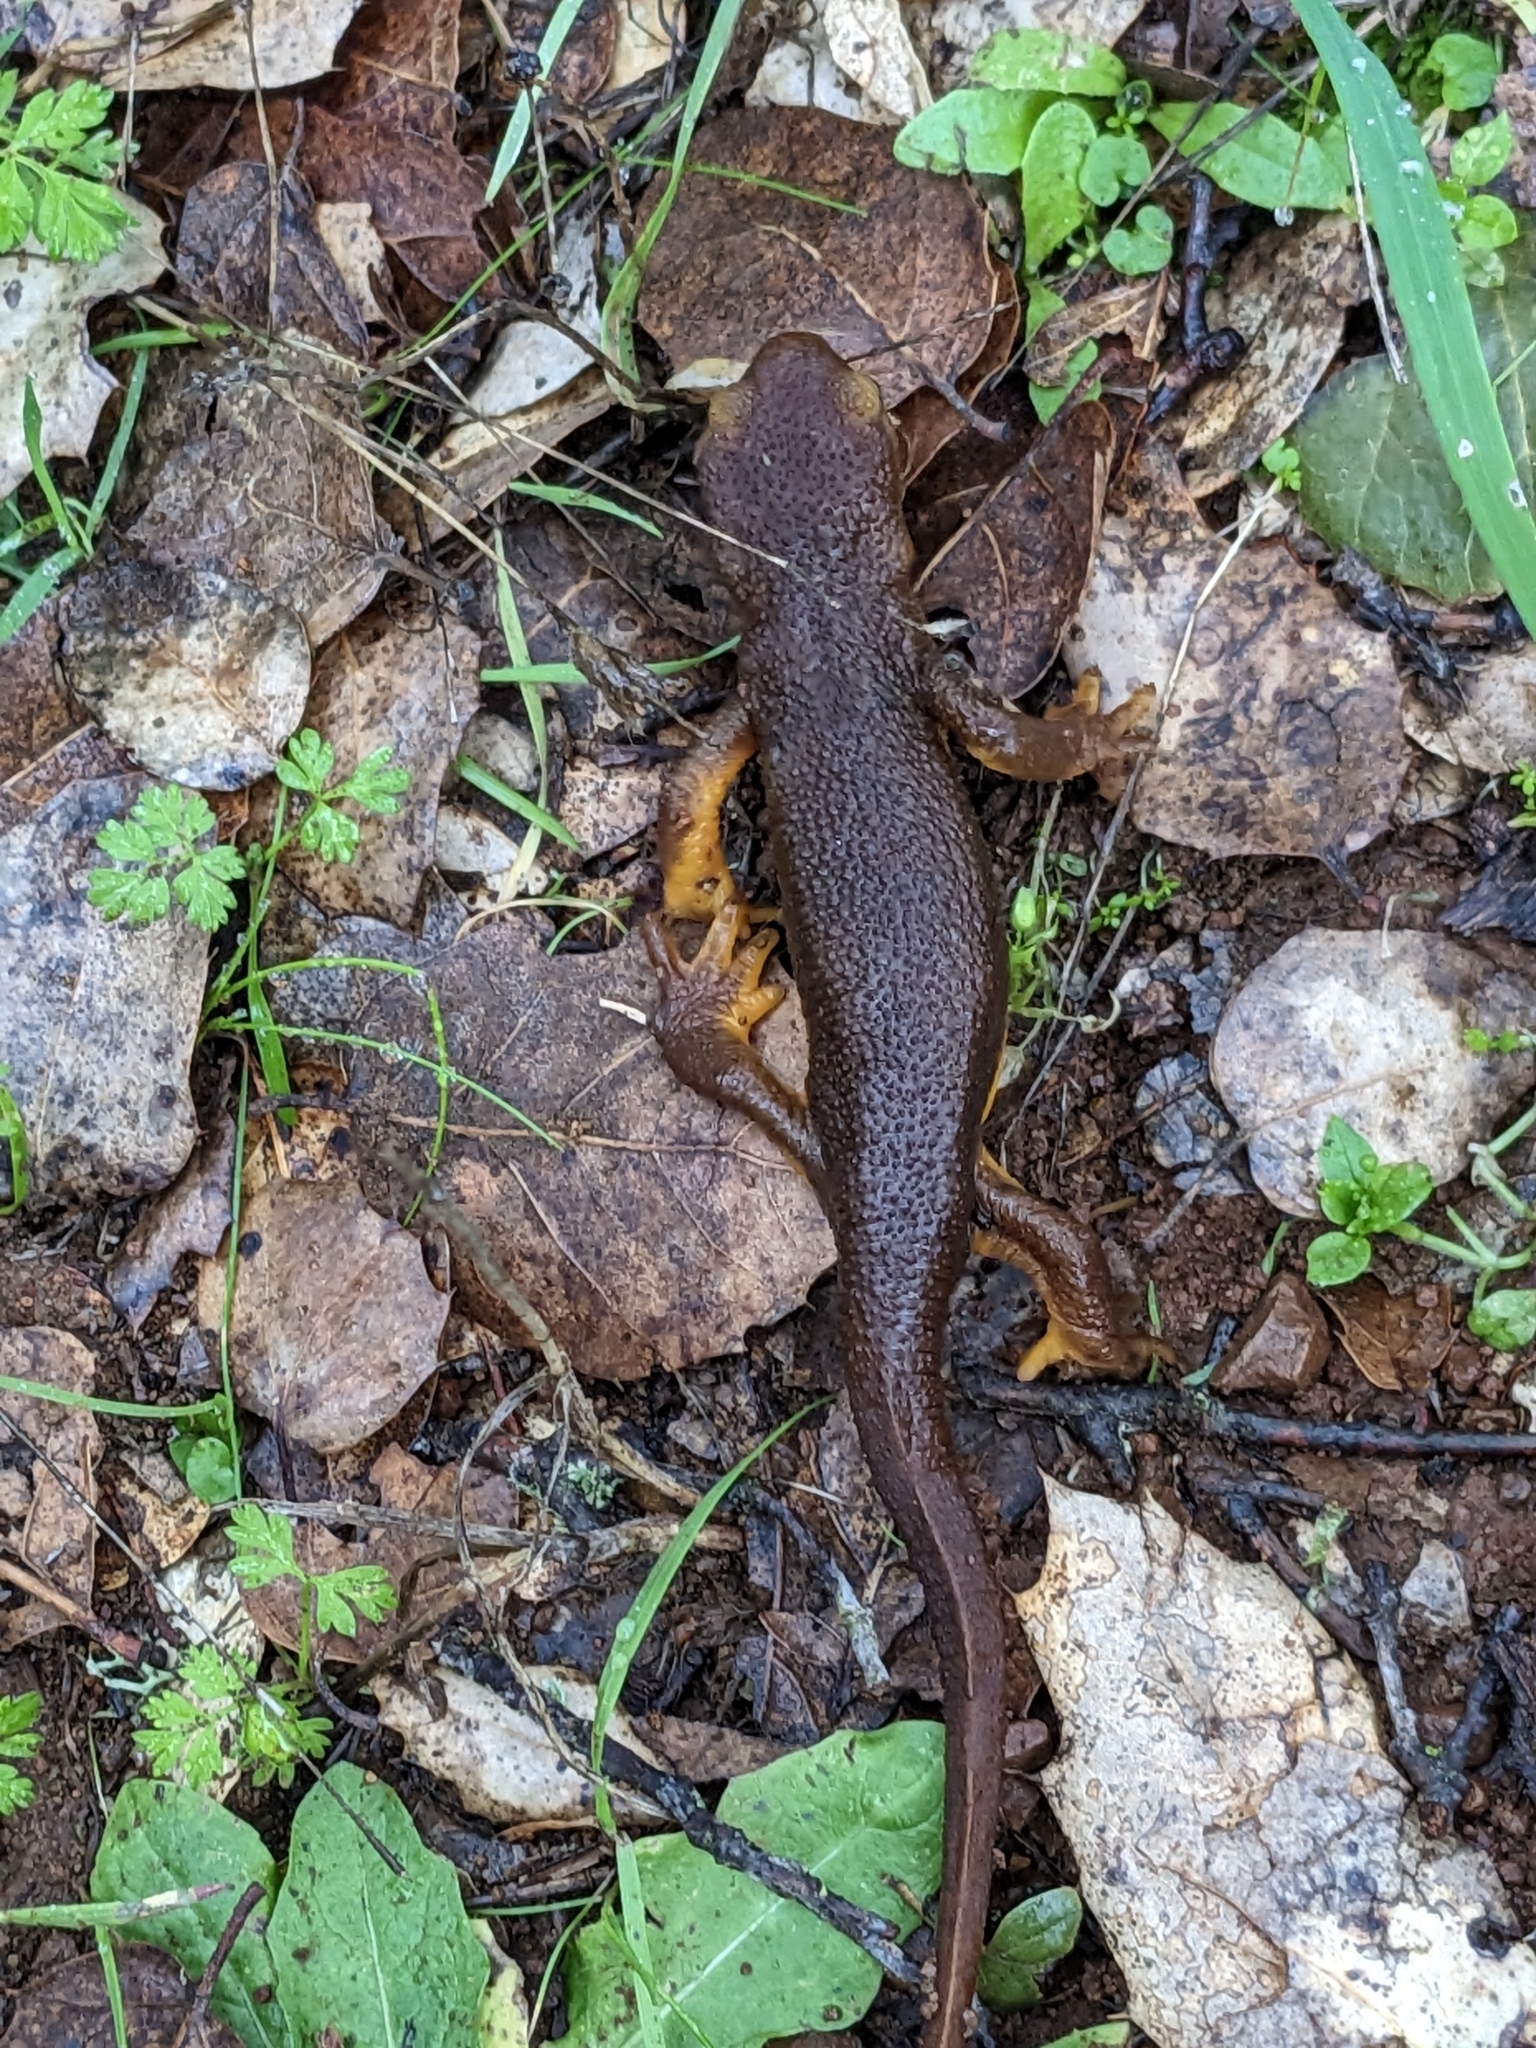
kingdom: Animalia
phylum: Chordata
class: Amphibia
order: Caudata
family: Salamandridae
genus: Taricha
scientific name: Taricha torosa
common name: California newt
